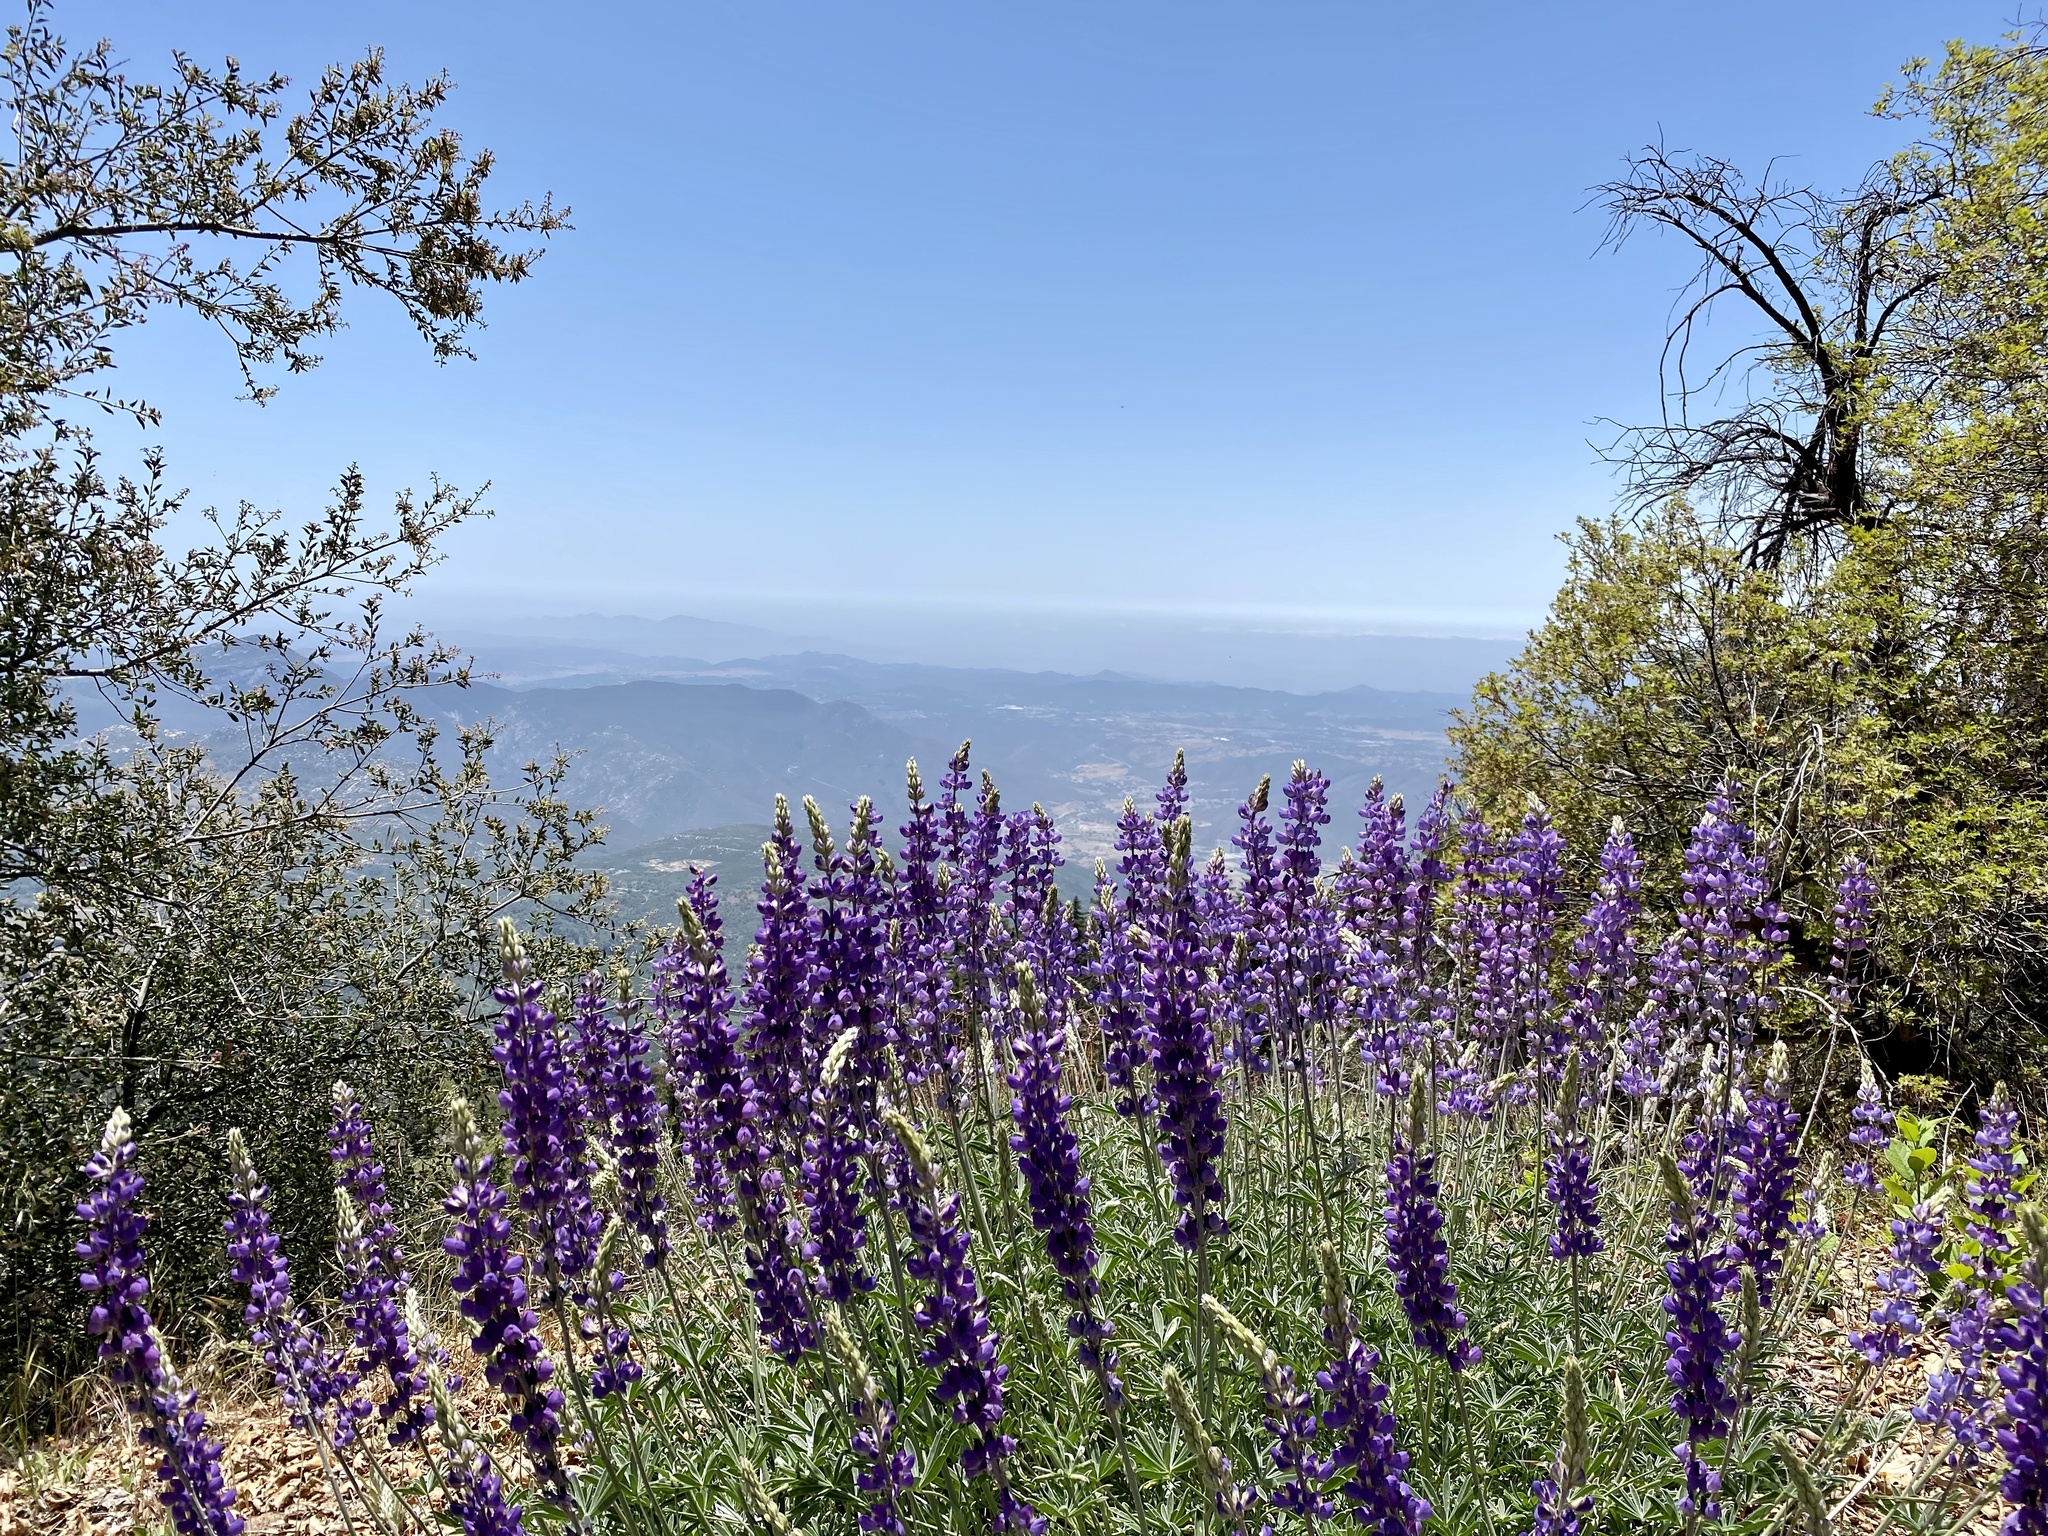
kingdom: Plantae
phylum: Tracheophyta
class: Magnoliopsida
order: Fabales
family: Fabaceae
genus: Lupinus
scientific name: Lupinus excubitus
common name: Grape soda lupine
